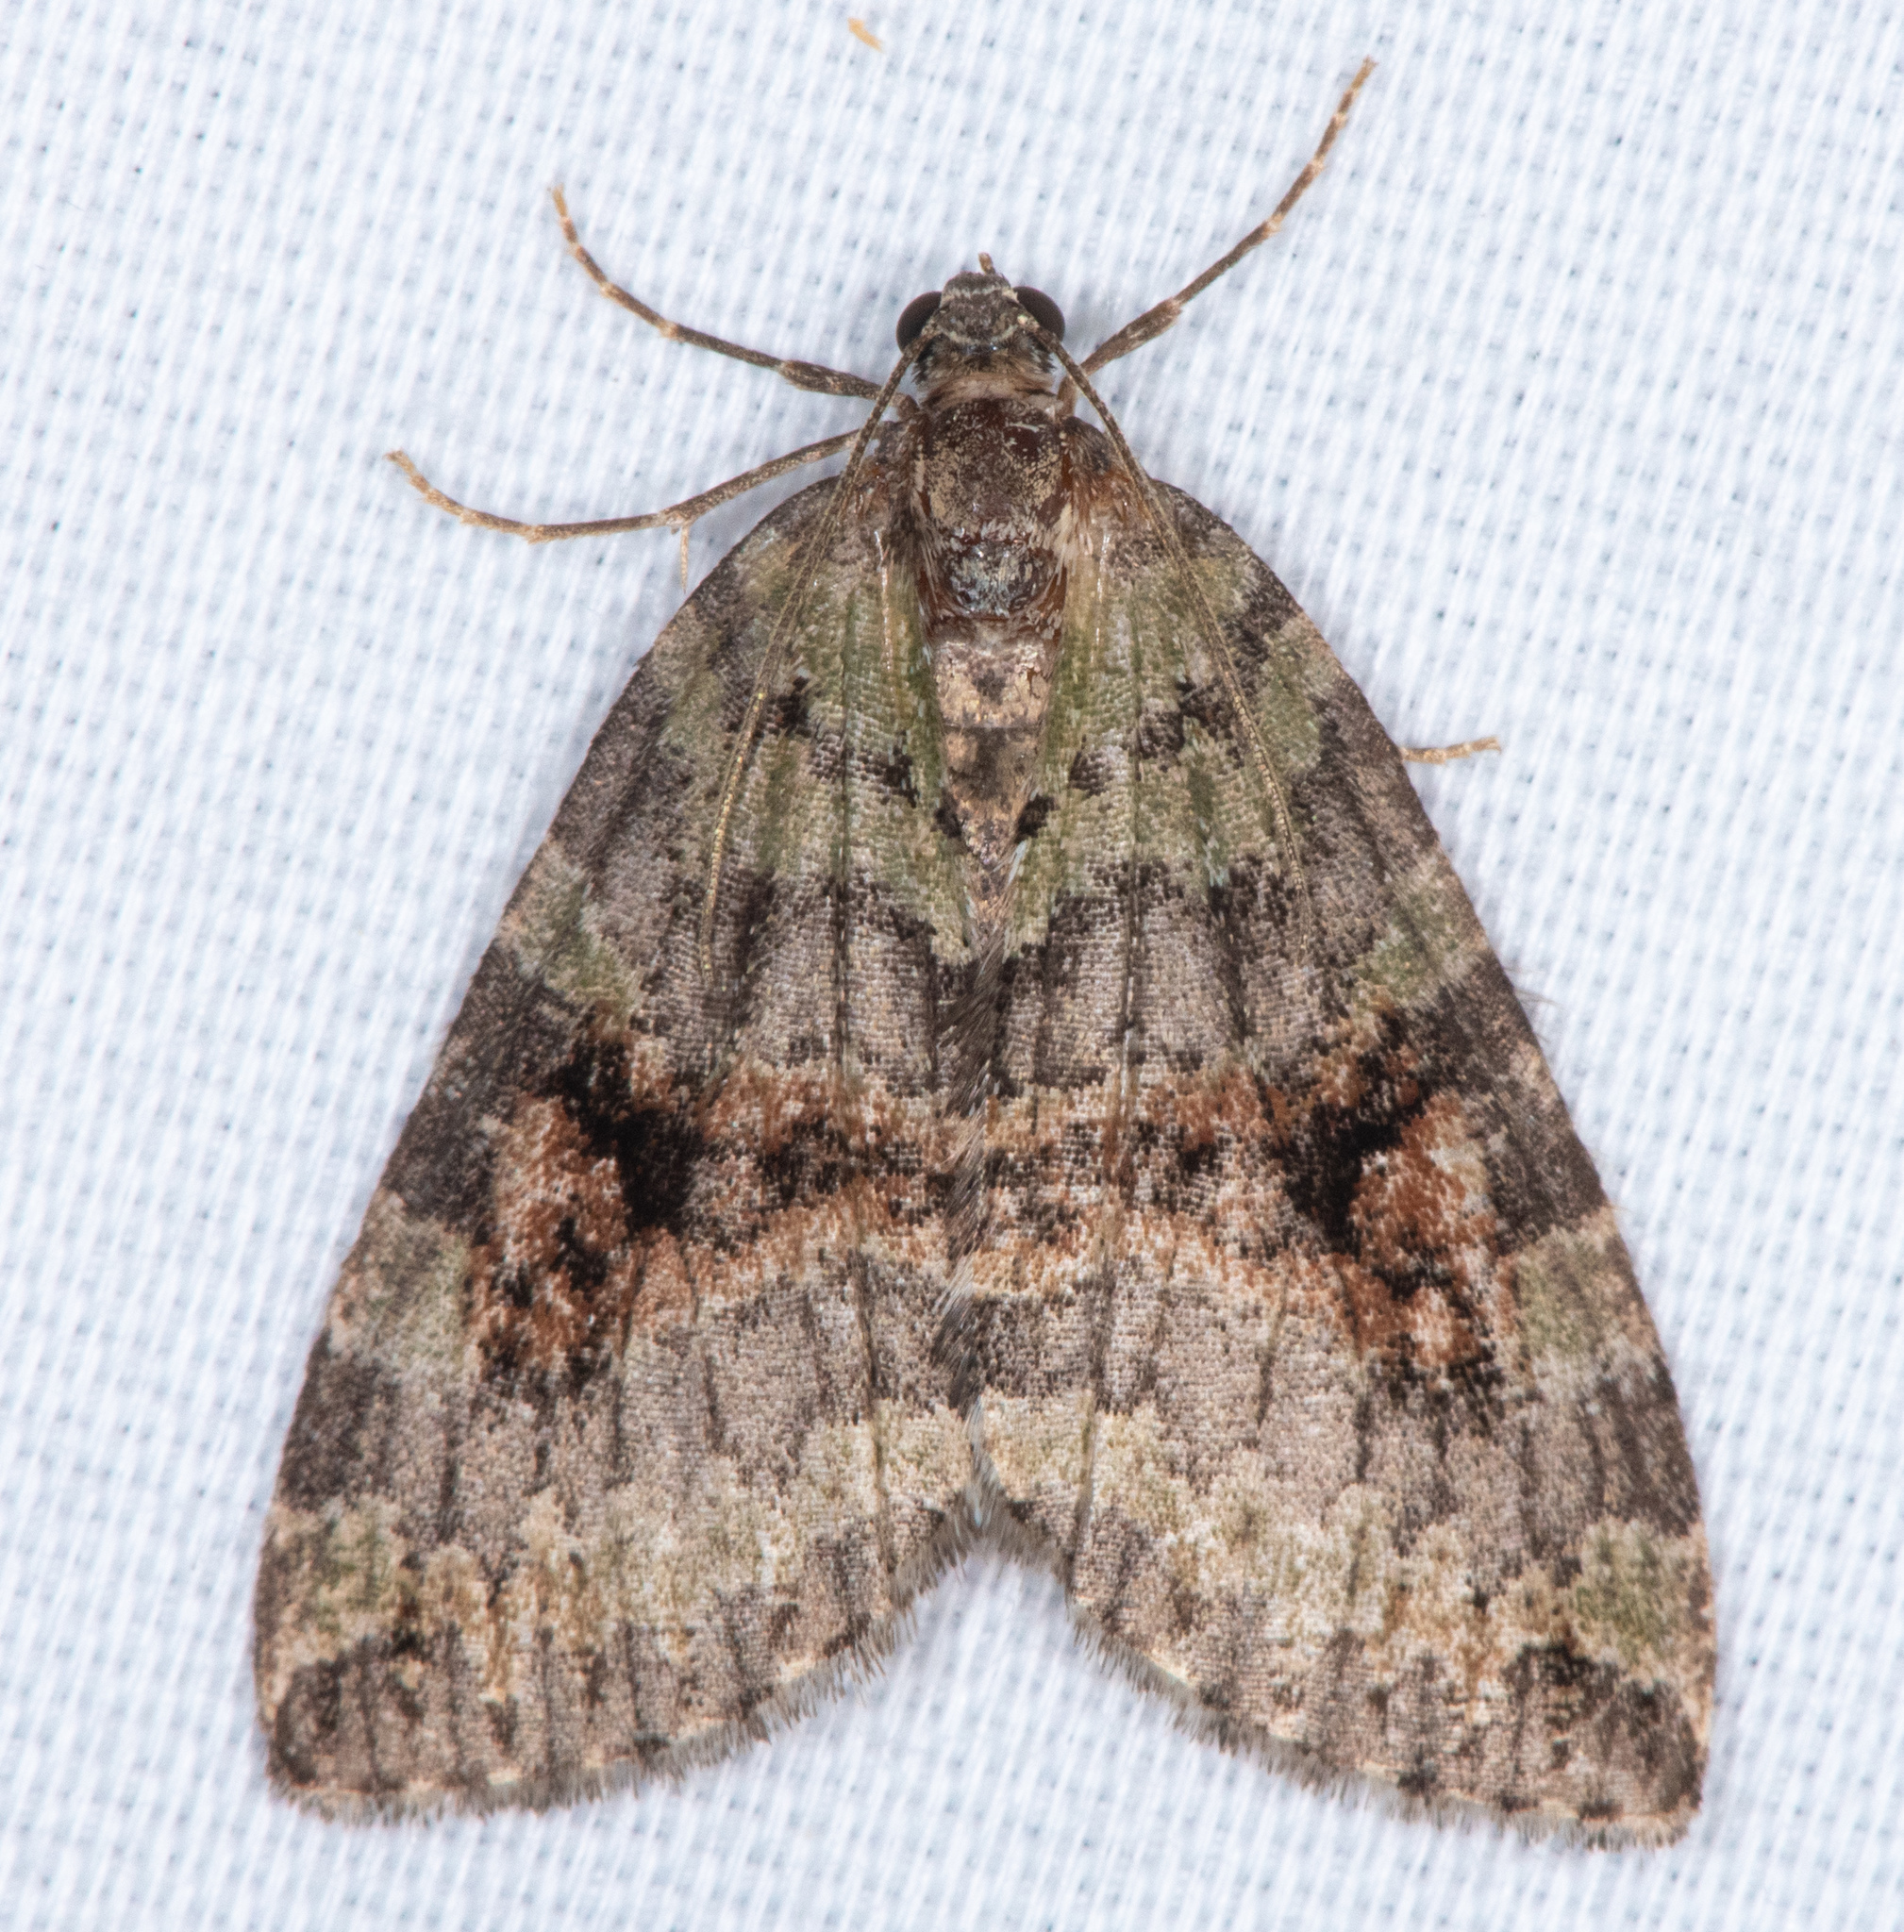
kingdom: Animalia
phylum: Arthropoda
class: Insecta
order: Lepidoptera
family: Geometridae
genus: Hydriomena
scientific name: Hydriomena nubilofasciata
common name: Oak winter highflier moth
